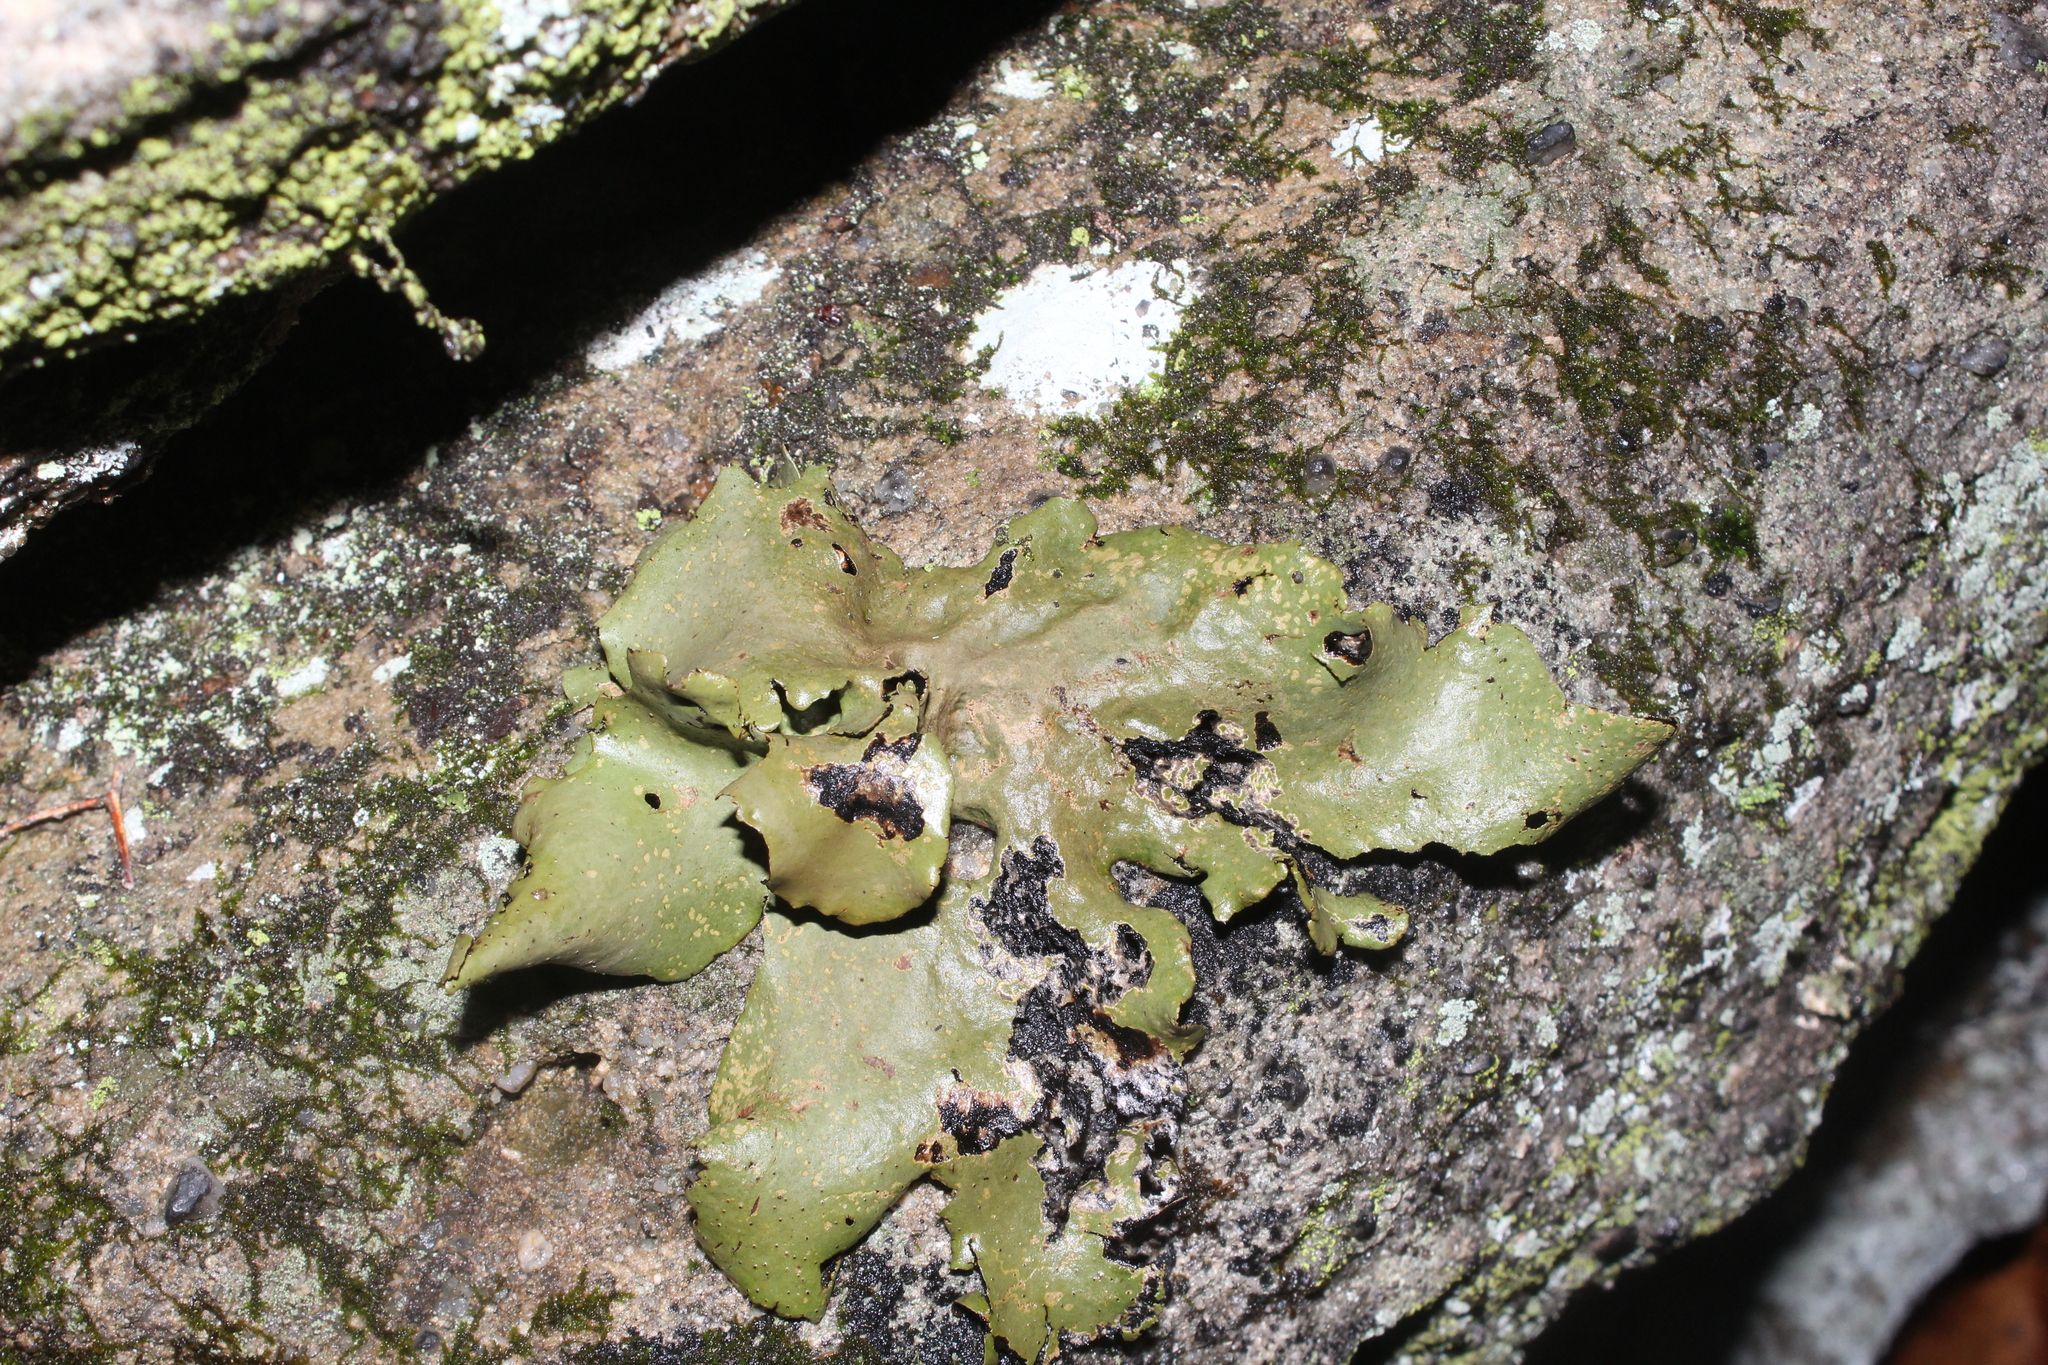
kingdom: Fungi
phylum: Ascomycota
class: Lecanoromycetes
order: Umbilicariales
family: Umbilicariaceae
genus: Umbilicaria
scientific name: Umbilicaria mammulata
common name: Smooth rock tripe
